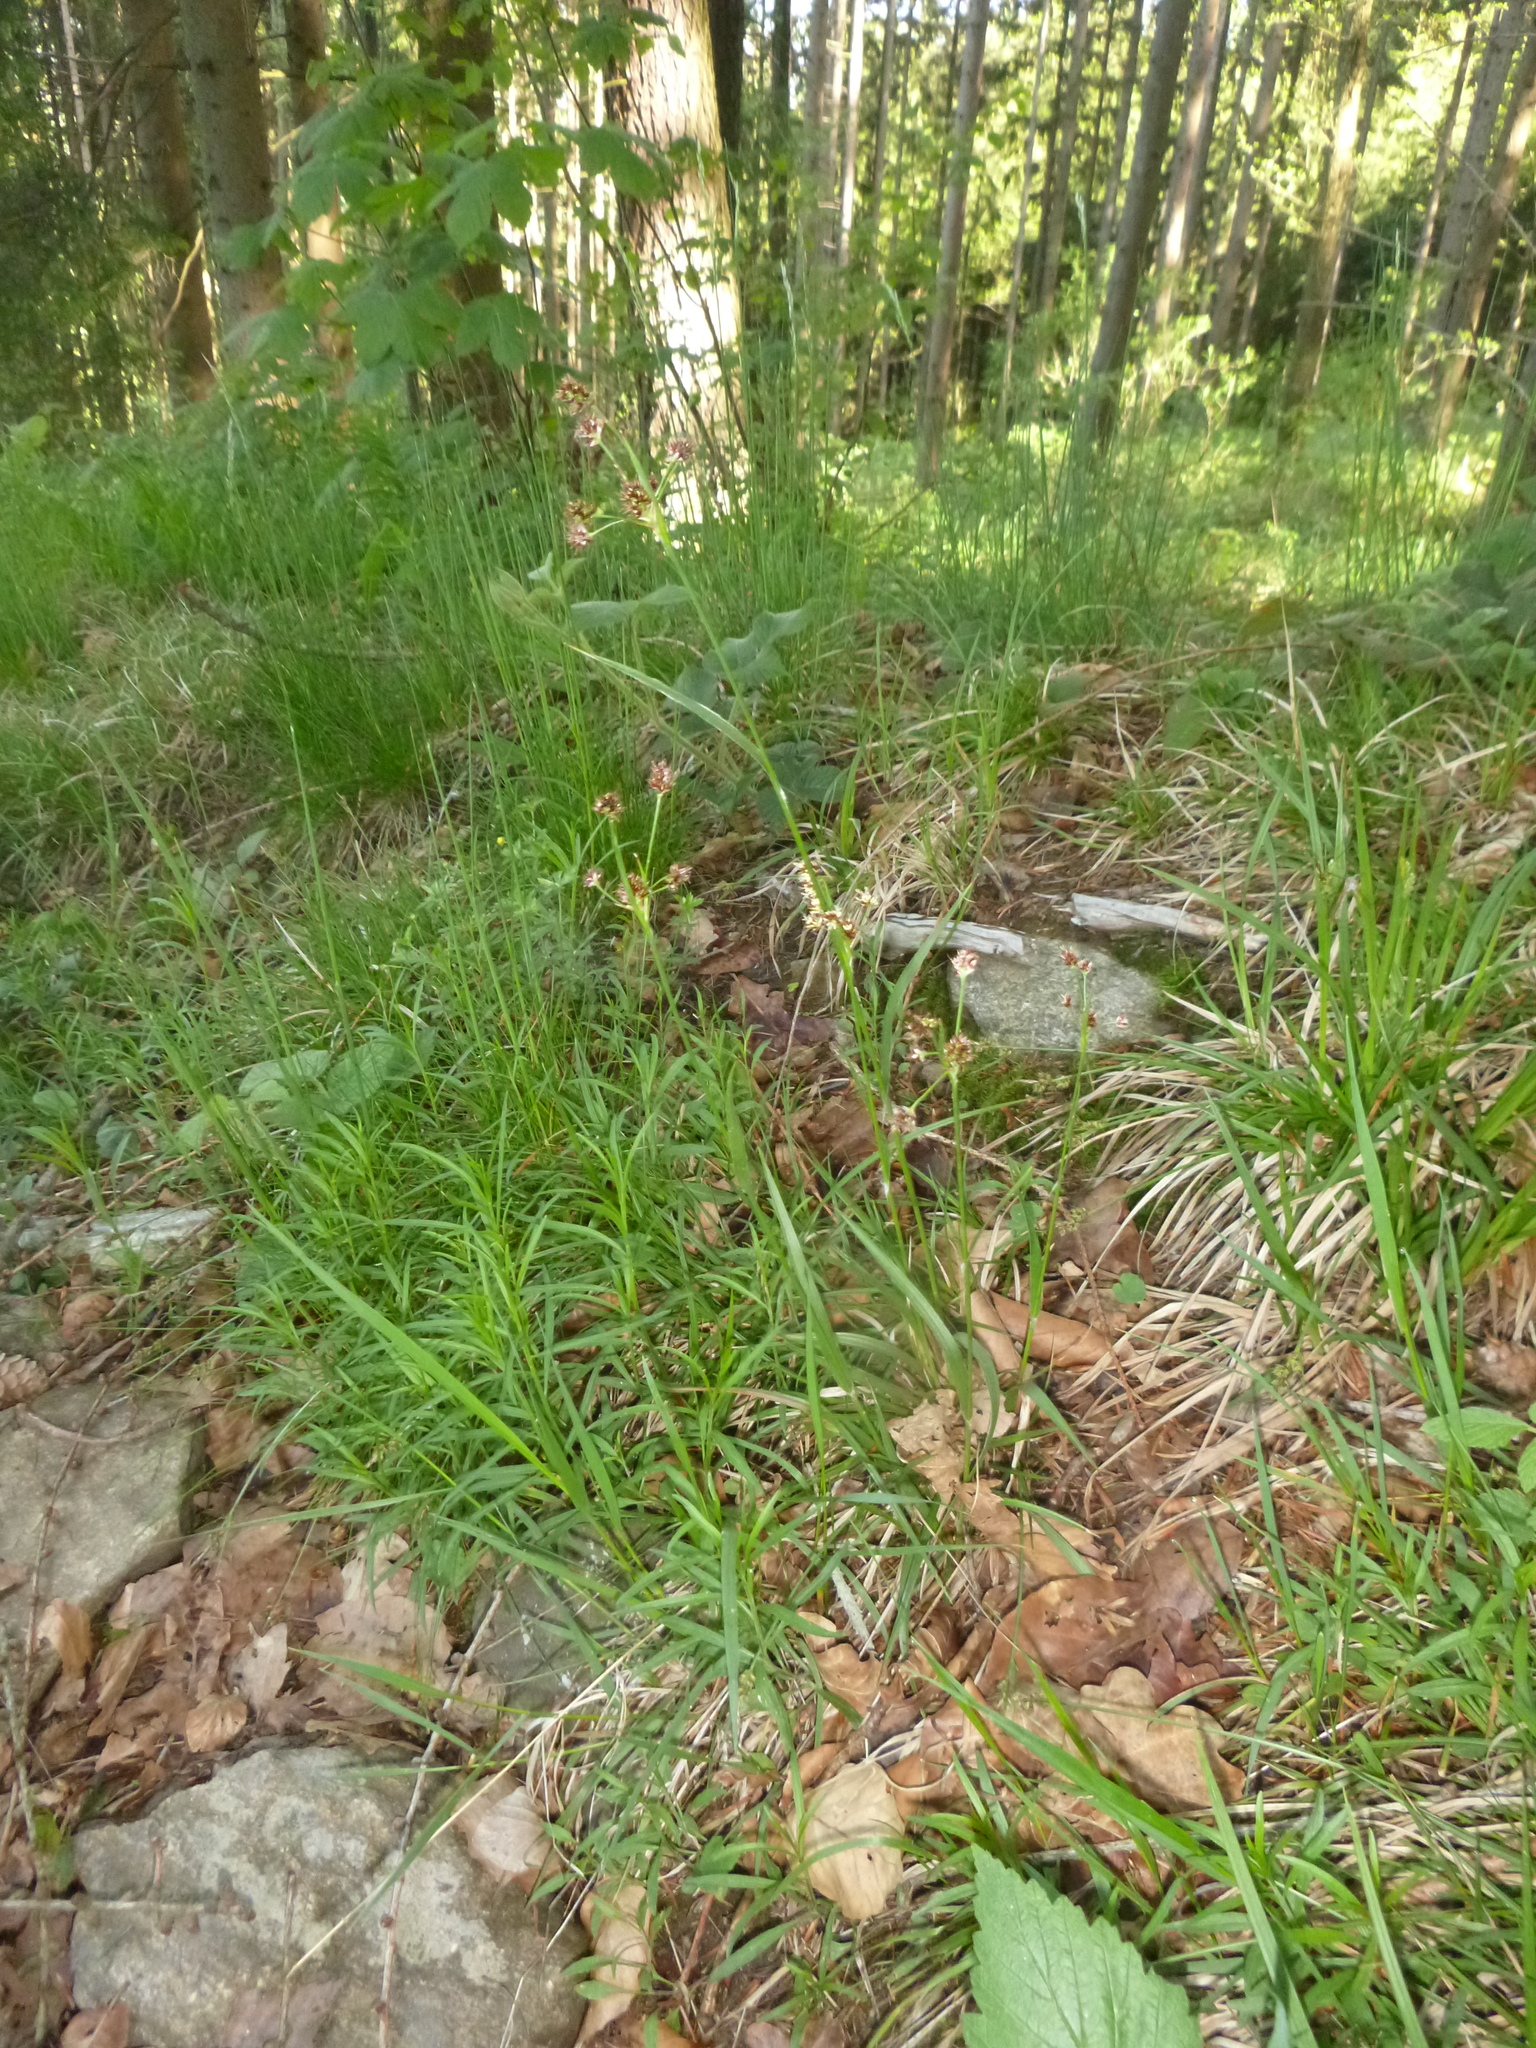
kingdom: Plantae
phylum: Tracheophyta
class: Liliopsida
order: Poales
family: Juncaceae
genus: Luzula
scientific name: Luzula multiflora
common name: Heath wood-rush
